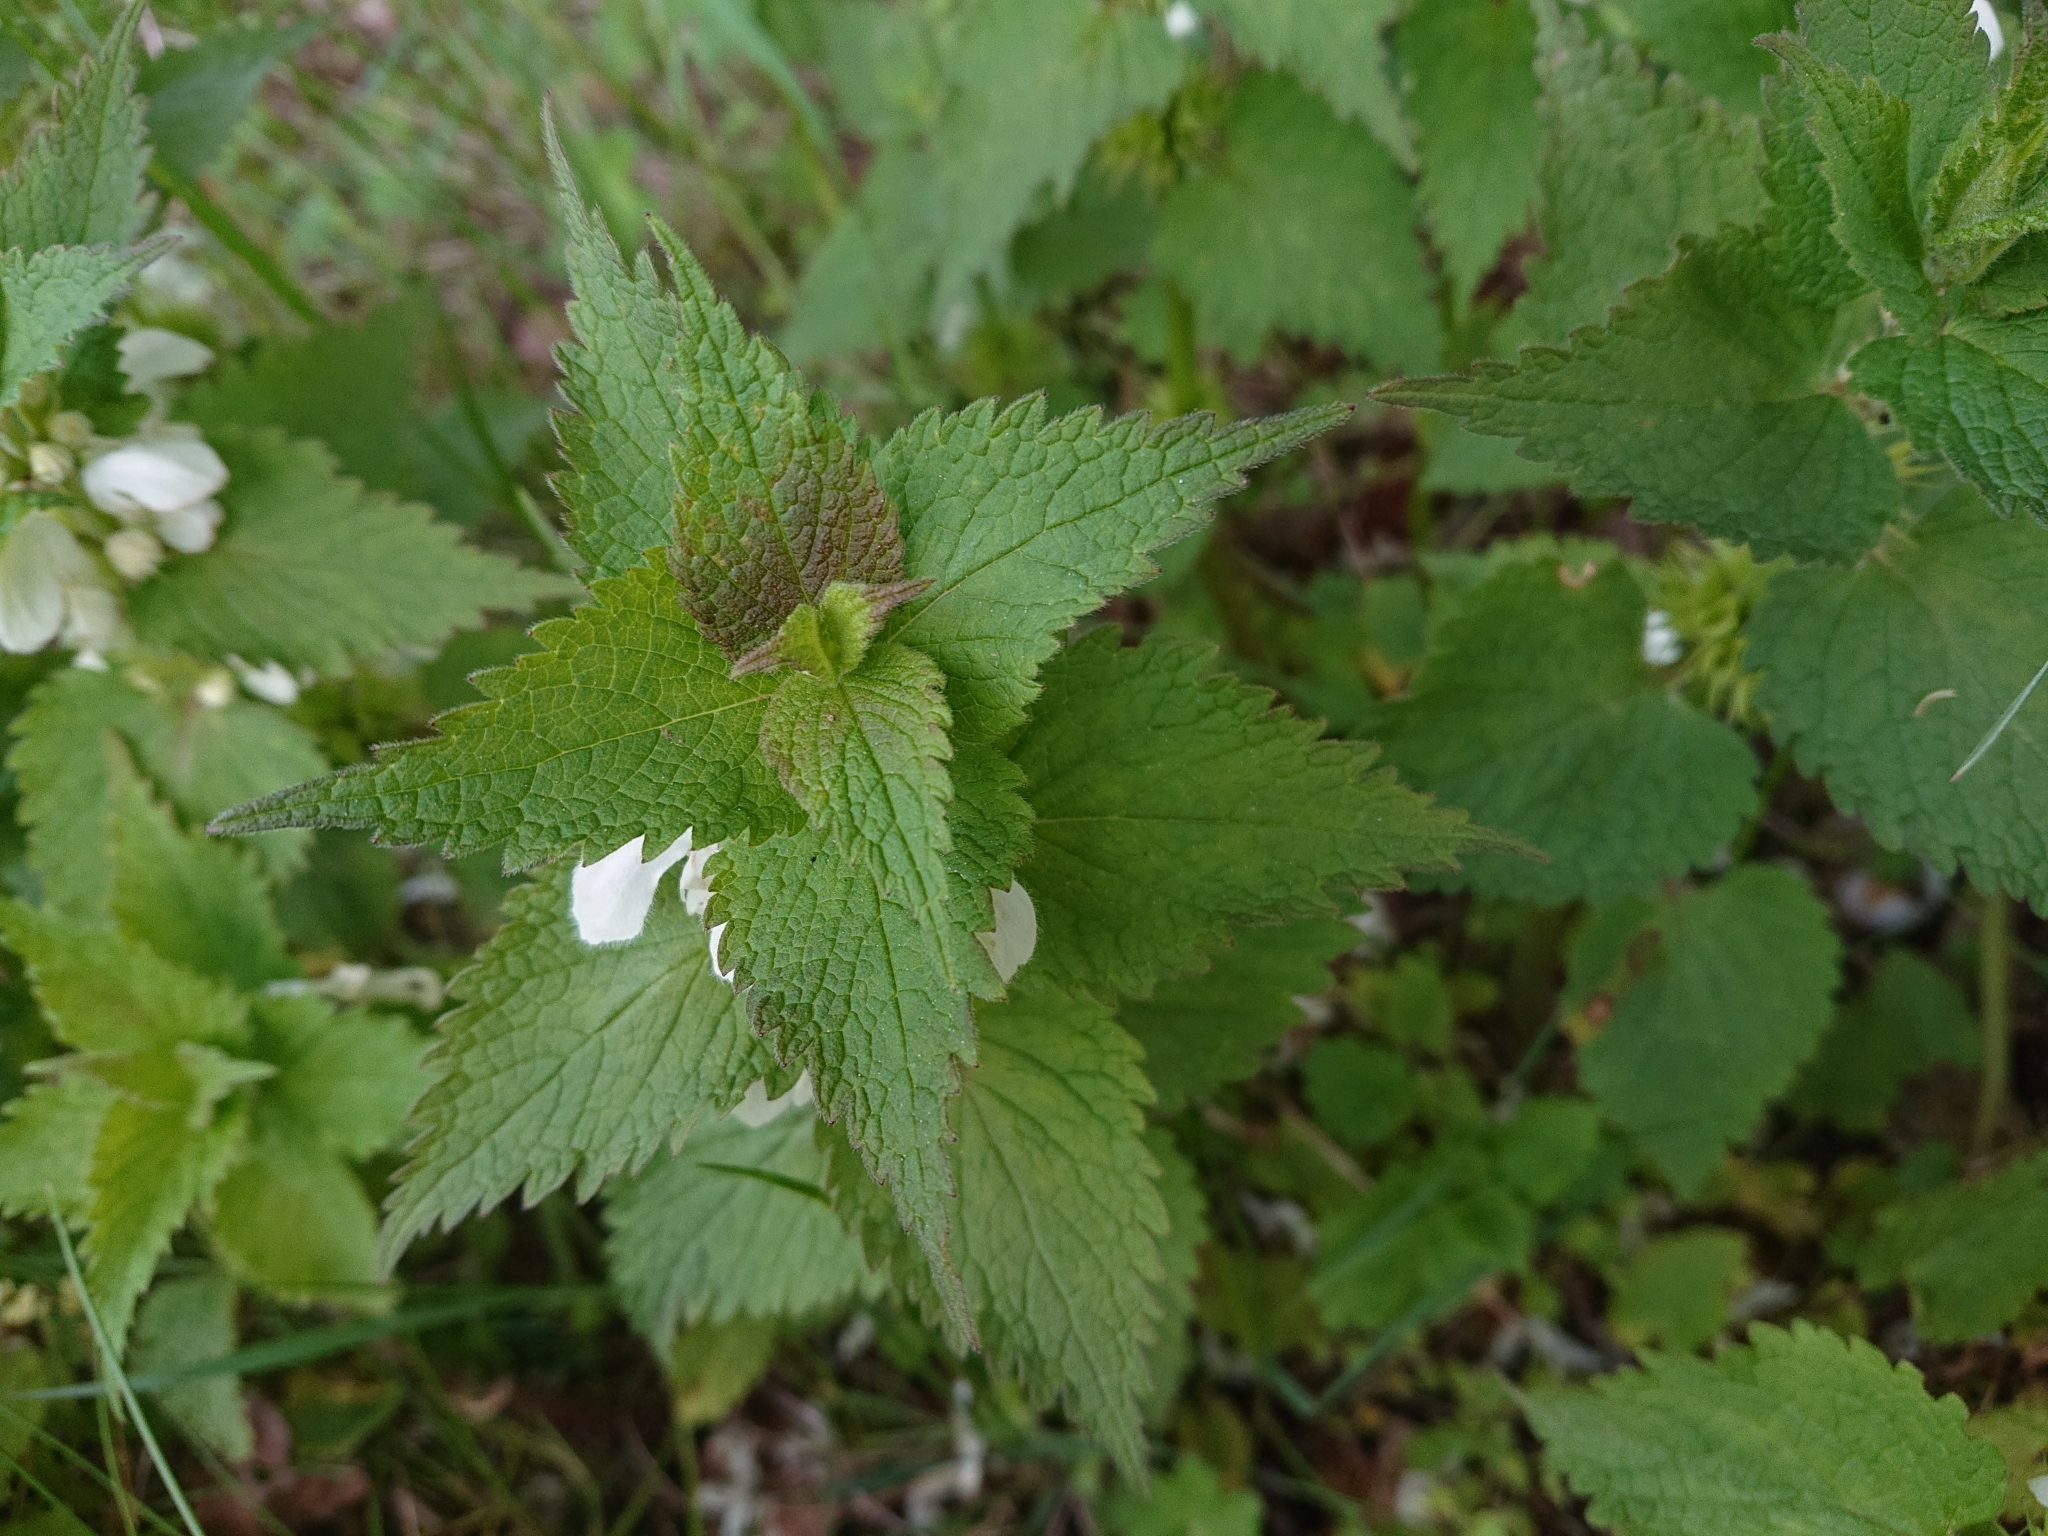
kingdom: Plantae
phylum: Tracheophyta
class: Magnoliopsida
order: Lamiales
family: Lamiaceae
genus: Lamium
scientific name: Lamium album
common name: White dead-nettle
